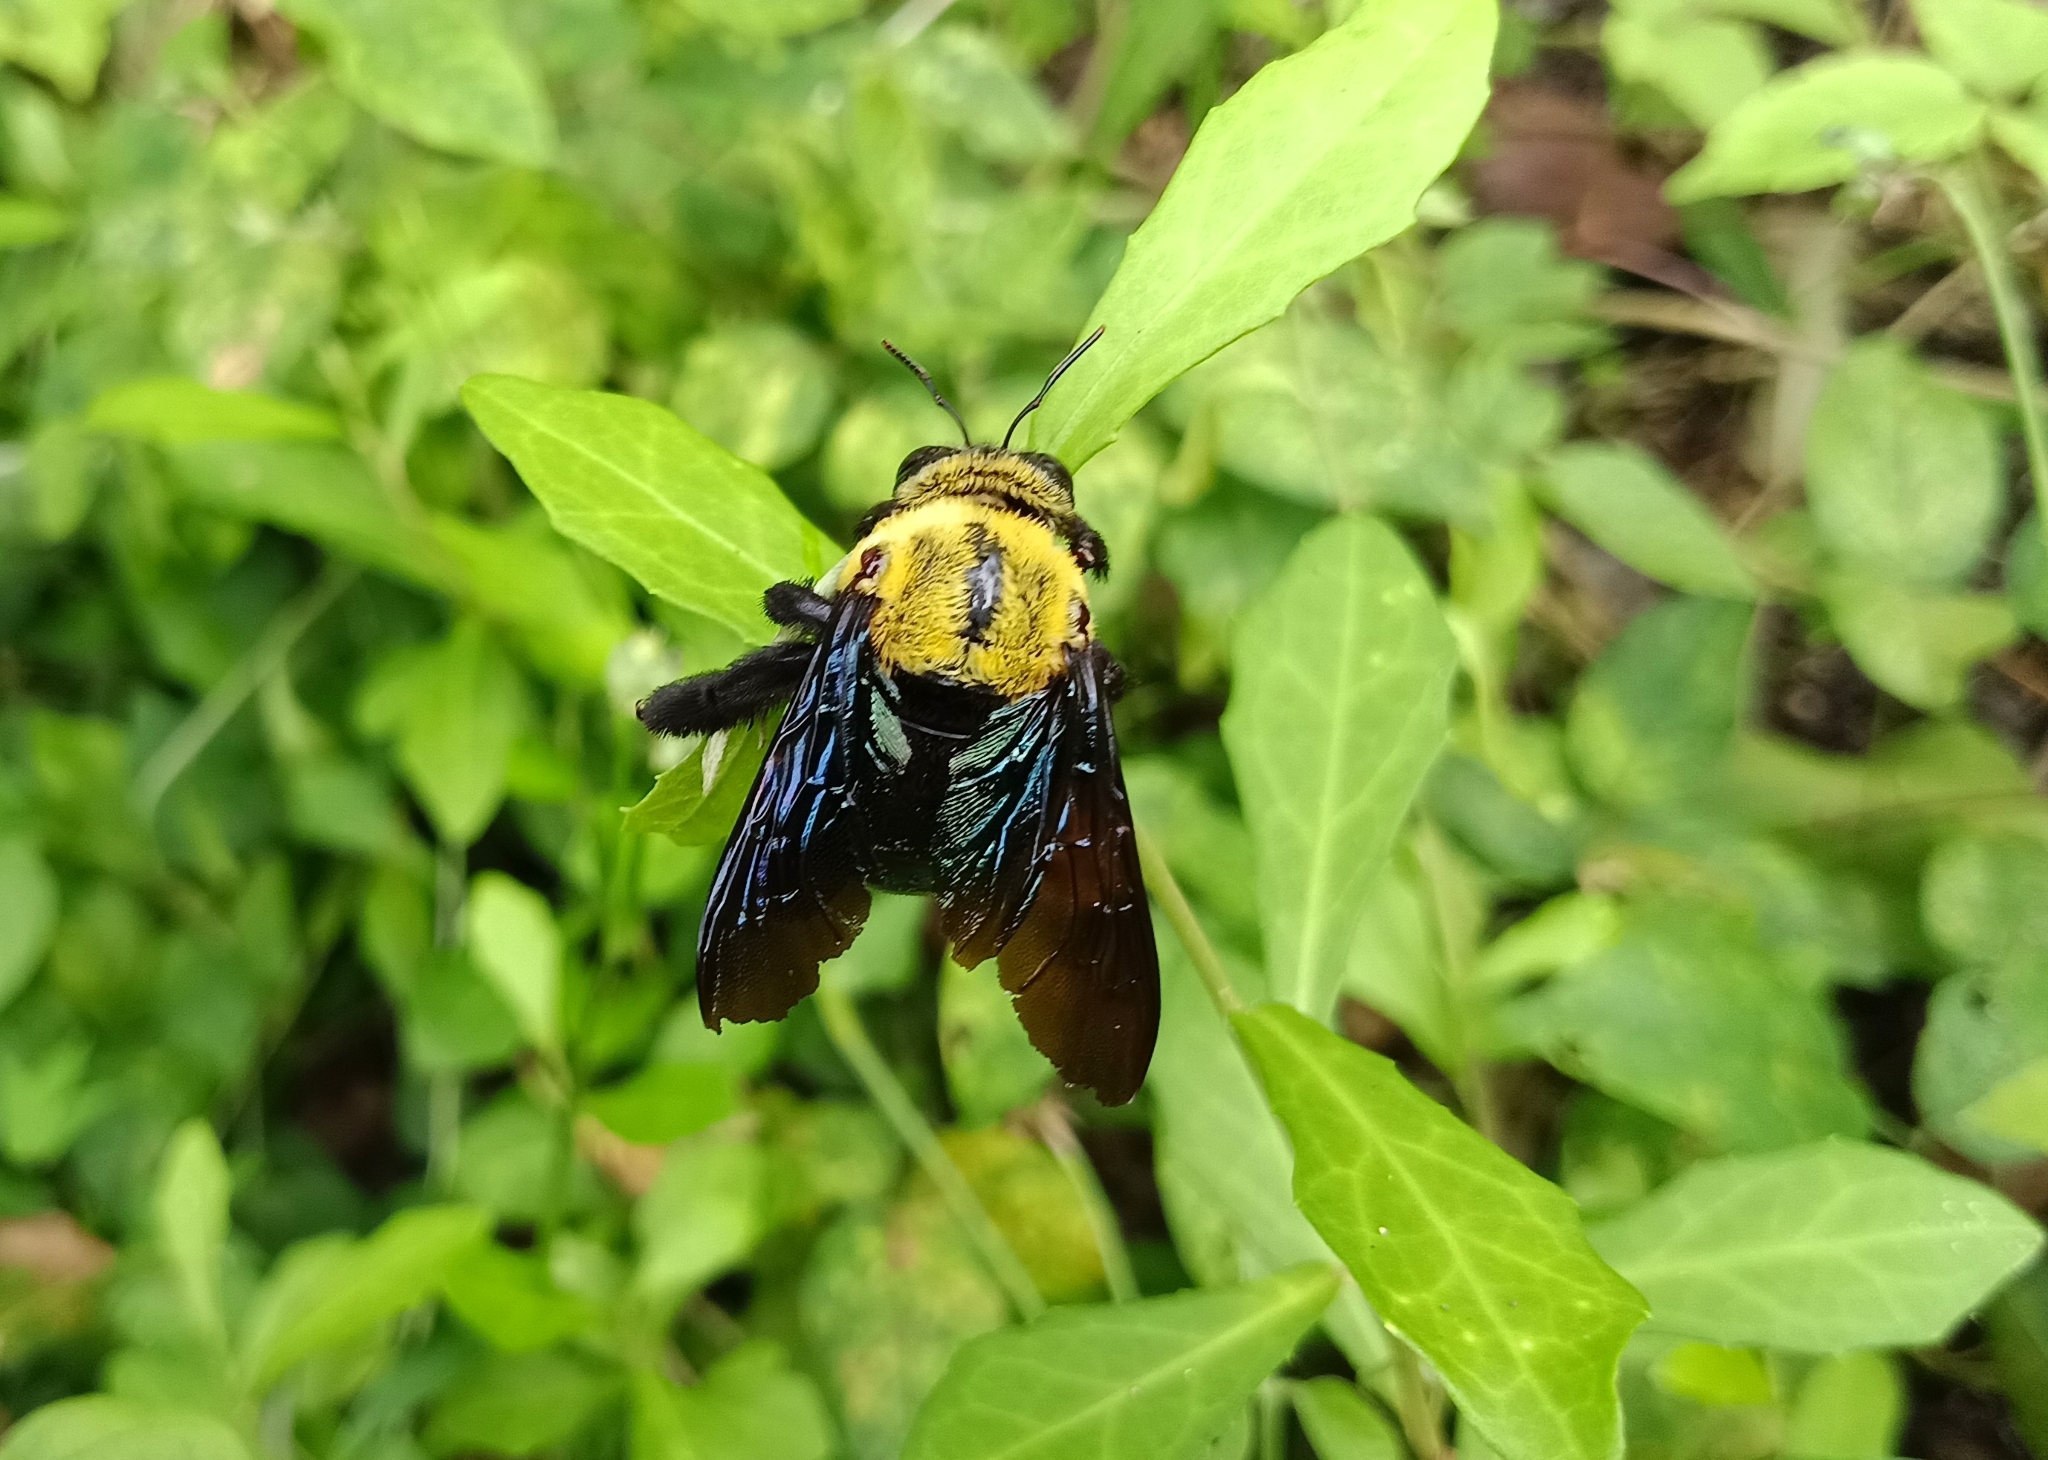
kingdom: Animalia
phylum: Arthropoda
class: Insecta
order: Hymenoptera
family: Apidae
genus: Xylocopa
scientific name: Xylocopa ruficornis
